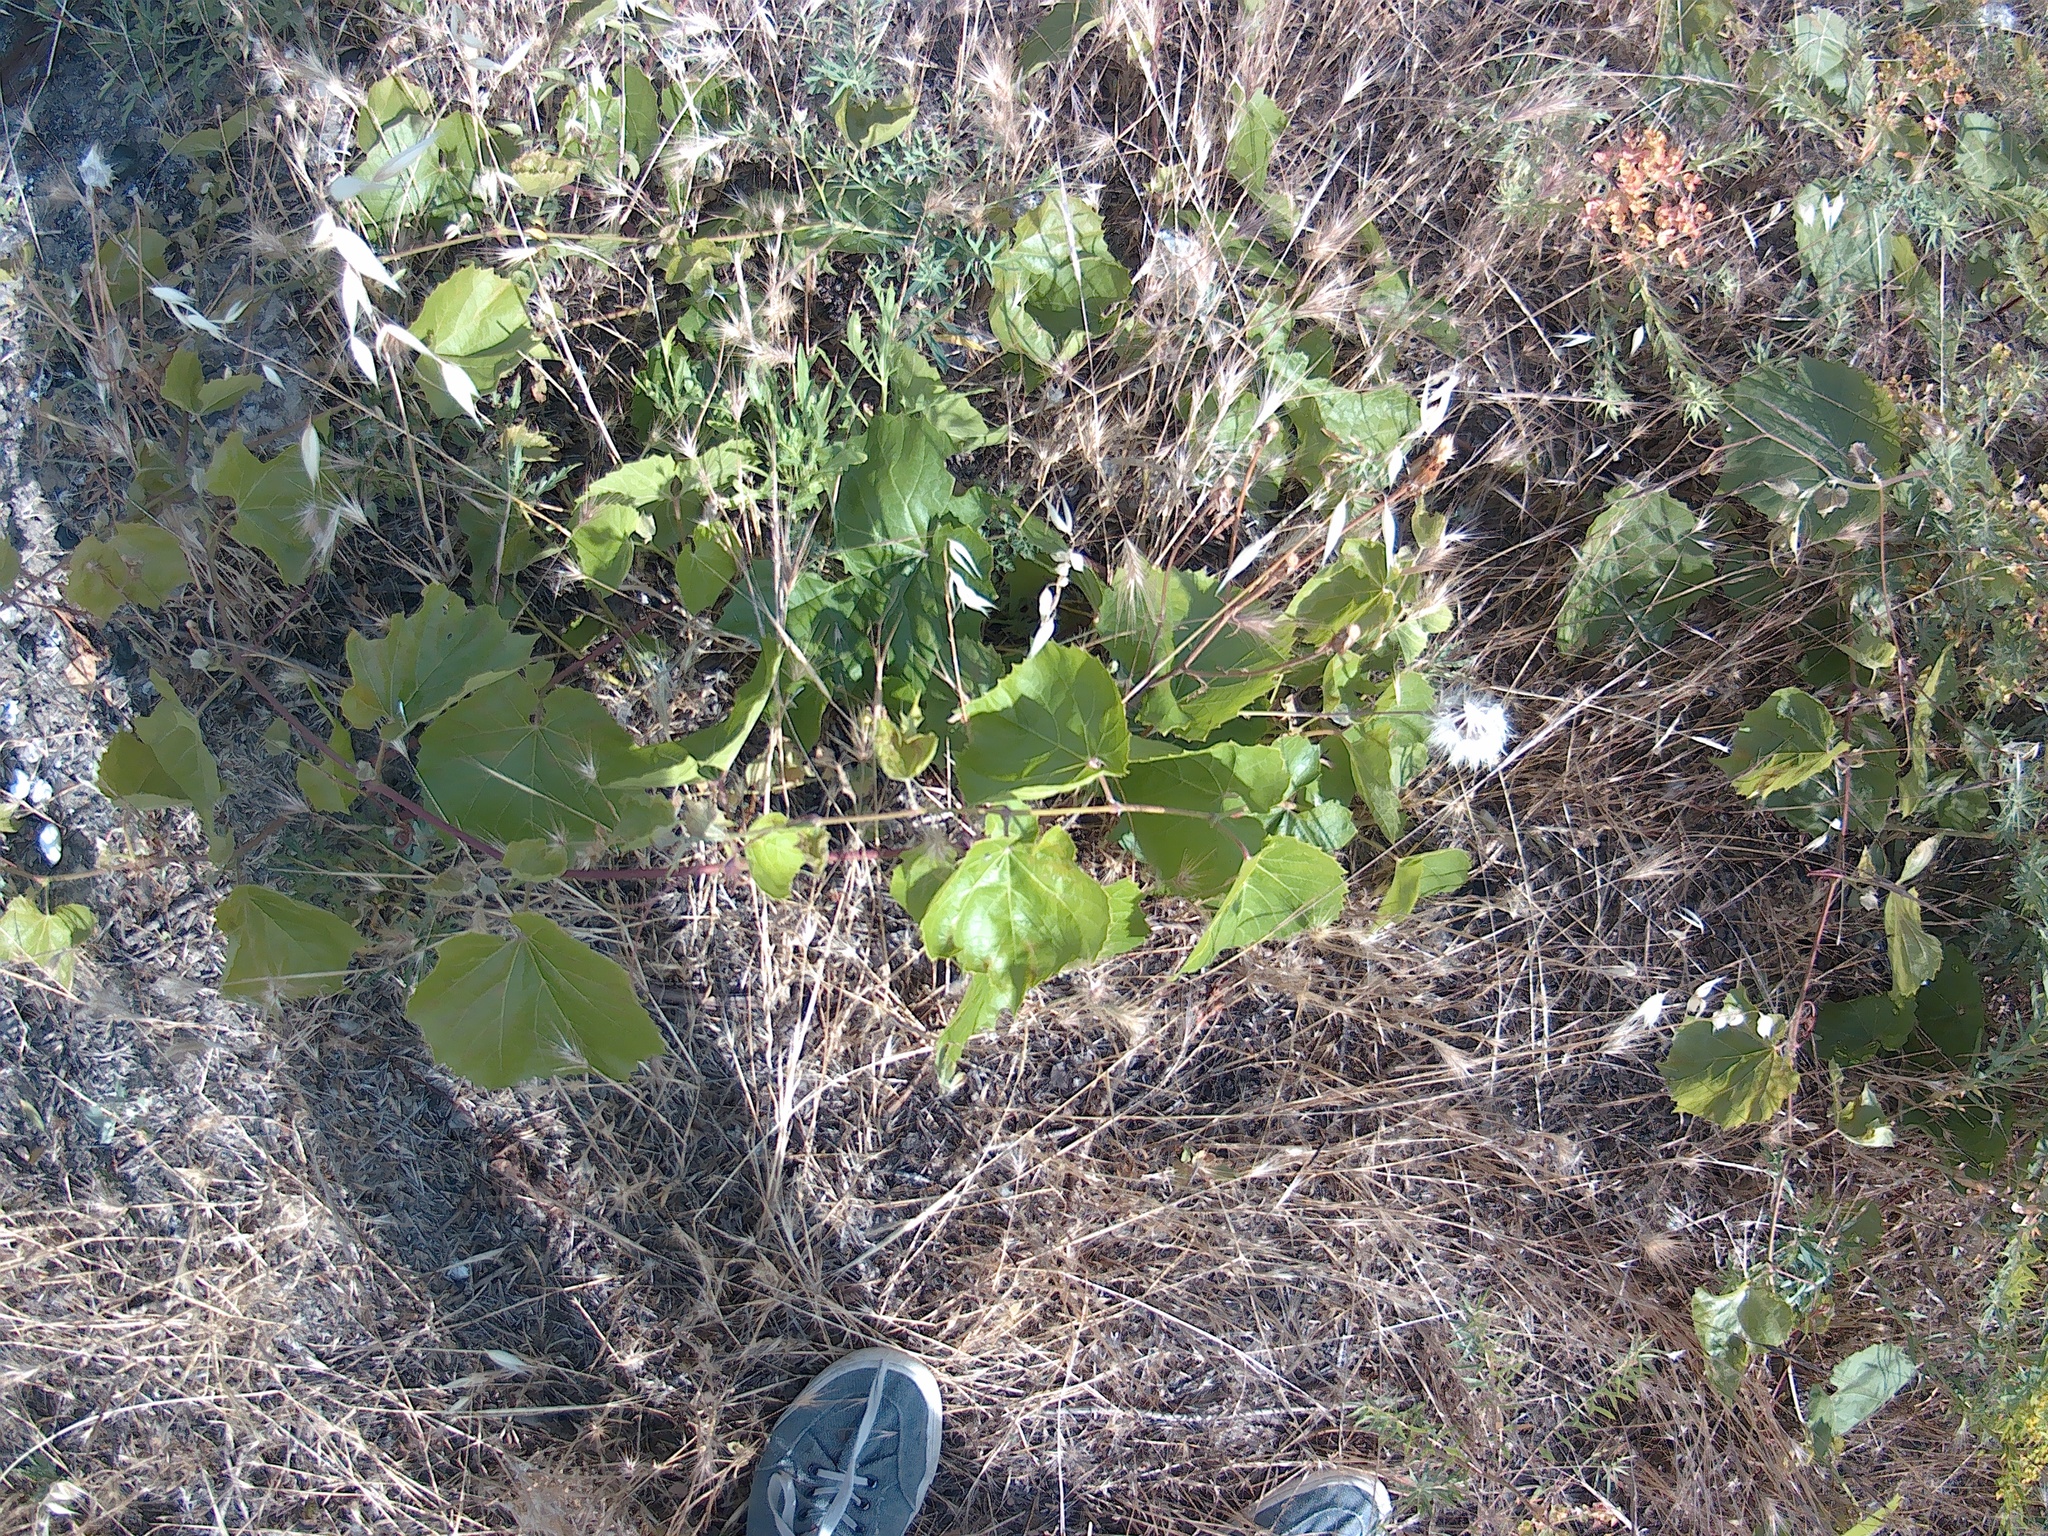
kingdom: Plantae
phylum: Tracheophyta
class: Magnoliopsida
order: Vitales
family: Vitaceae
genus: Vitis
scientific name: Vitis vinifera
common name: Grape-vine
